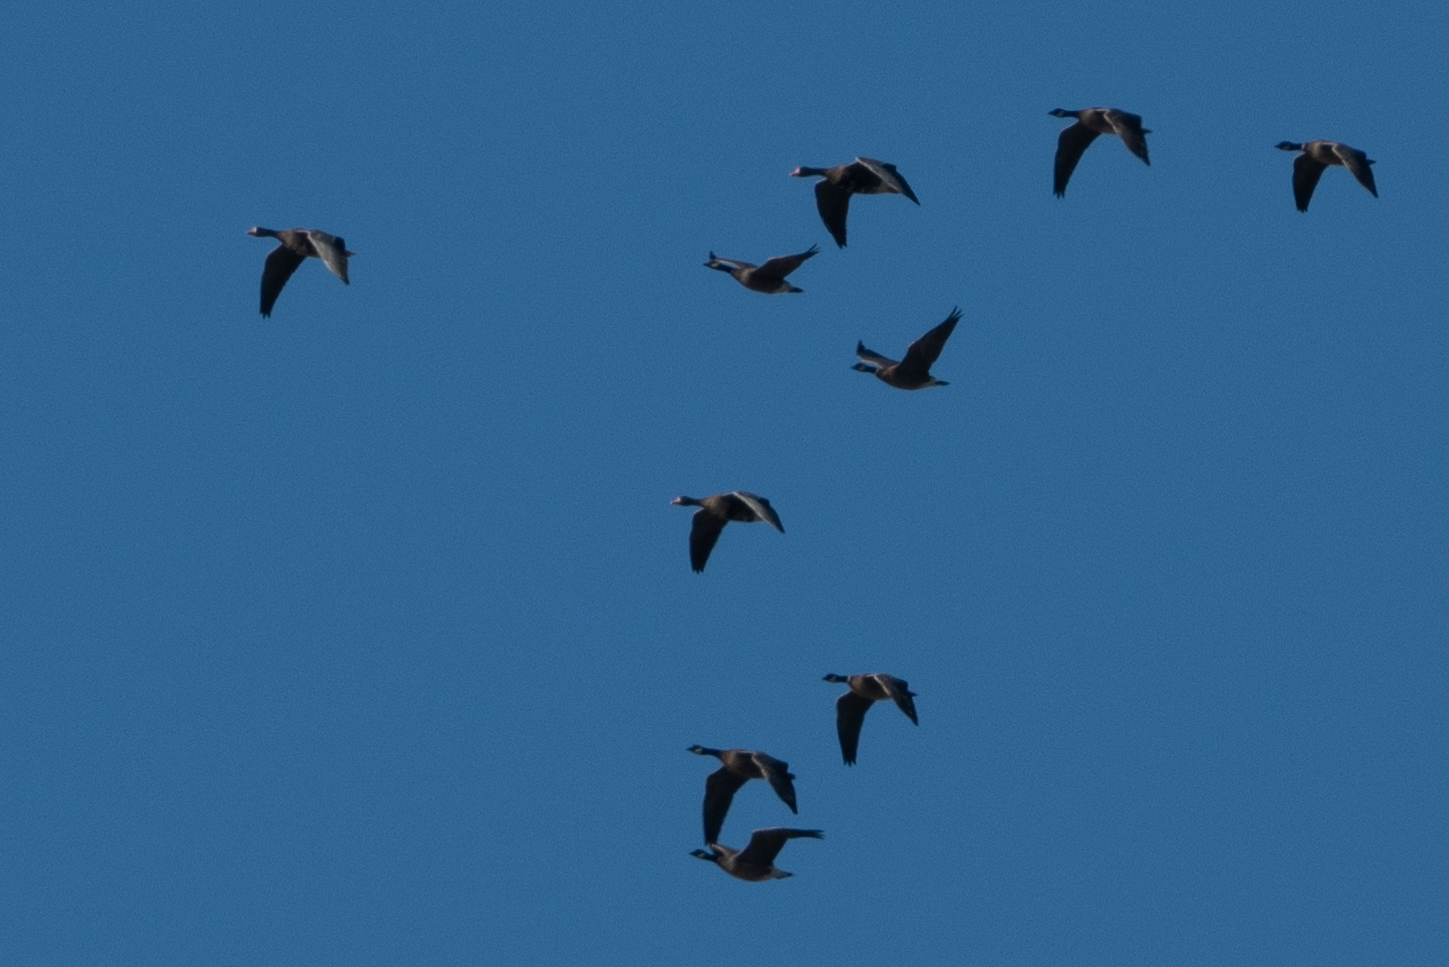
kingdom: Animalia
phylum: Chordata
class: Aves
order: Anseriformes
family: Anatidae
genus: Anser
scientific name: Anser albifrons
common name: Greater white-fronted goose
